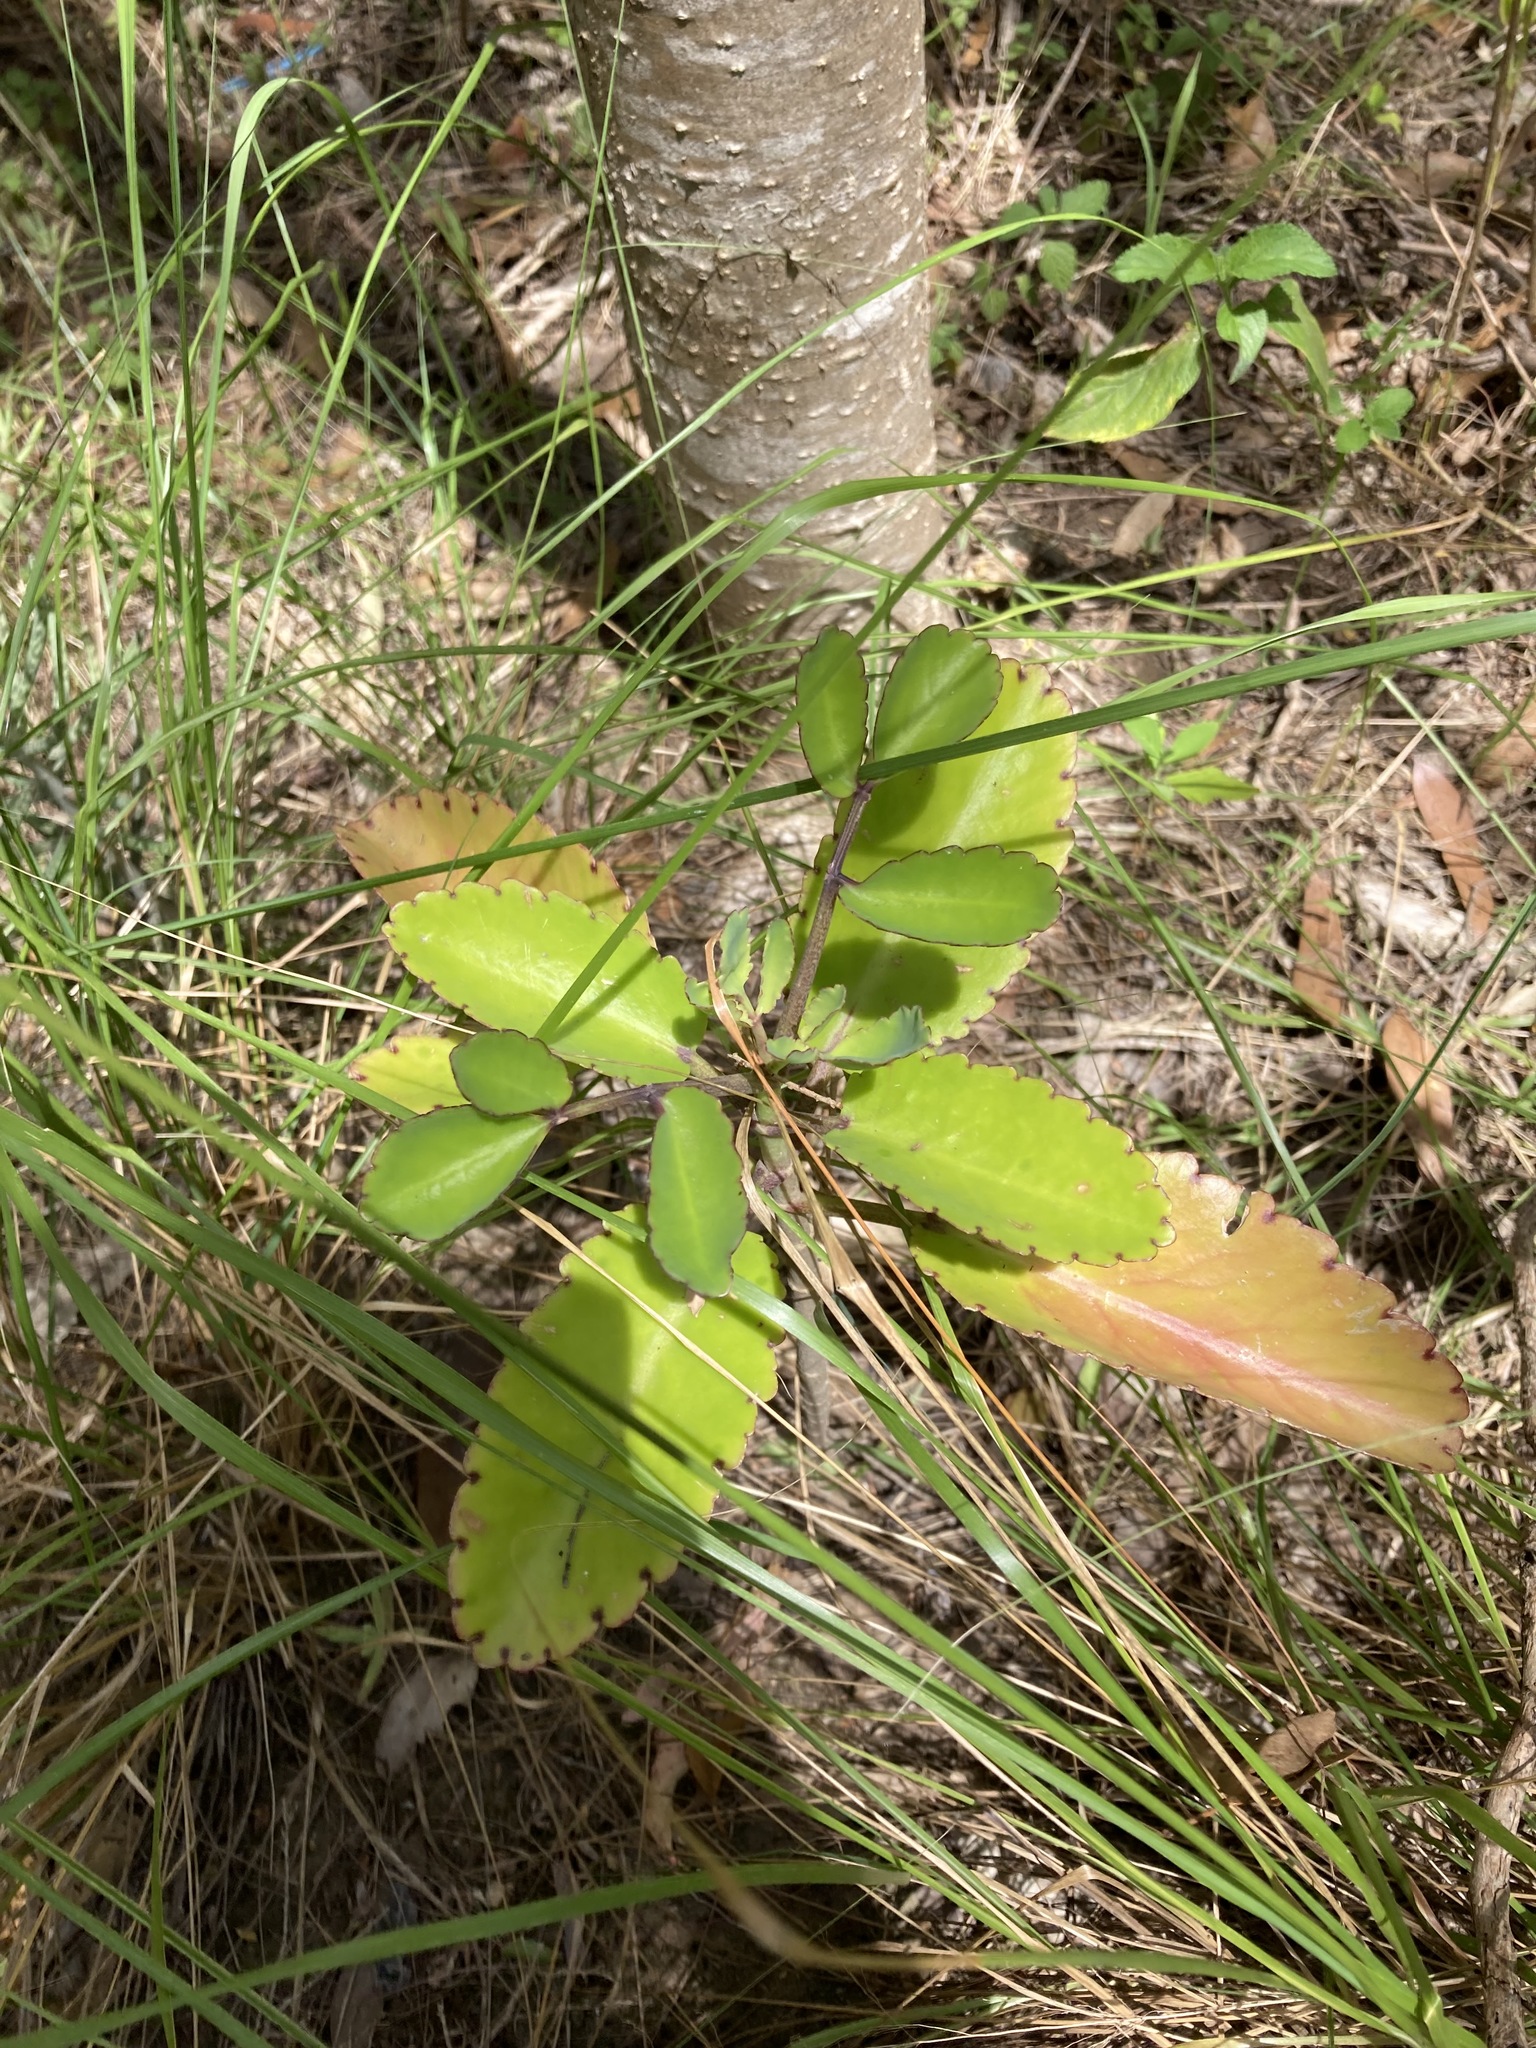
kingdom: Plantae
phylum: Tracheophyta
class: Magnoliopsida
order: Saxifragales
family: Crassulaceae
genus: Kalanchoe
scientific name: Kalanchoe pinnata
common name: Cathedral bells
